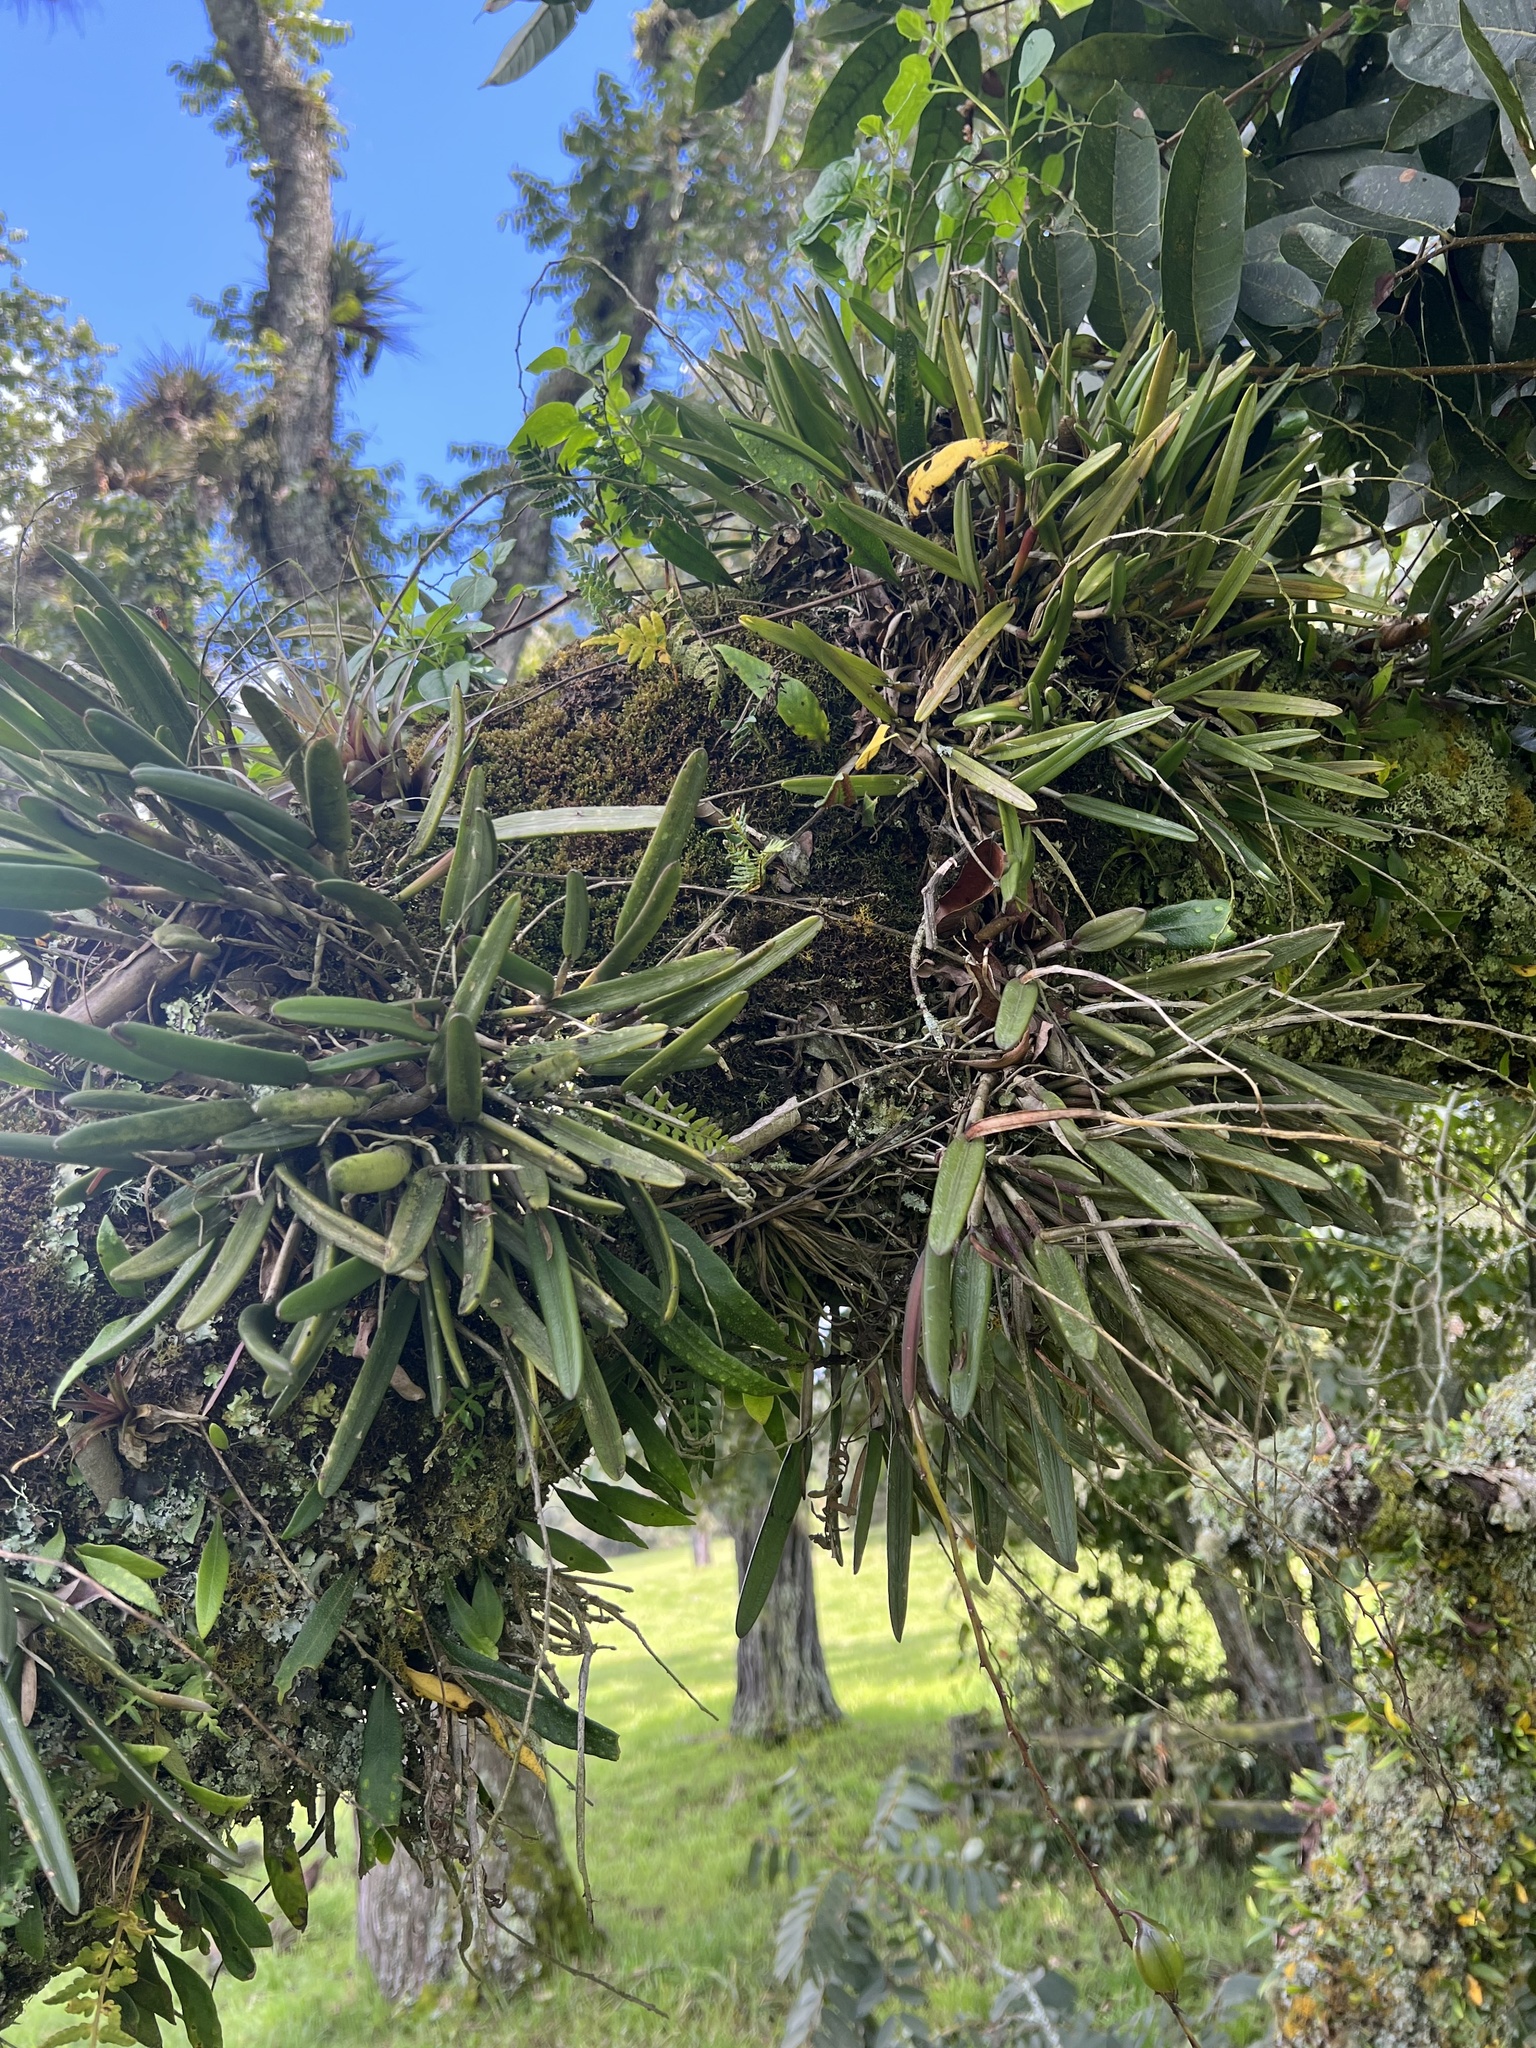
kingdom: Plantae
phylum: Tracheophyta
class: Liliopsida
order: Asparagales
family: Orchidaceae
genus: Epidendrum
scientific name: Epidendrum moritzii
